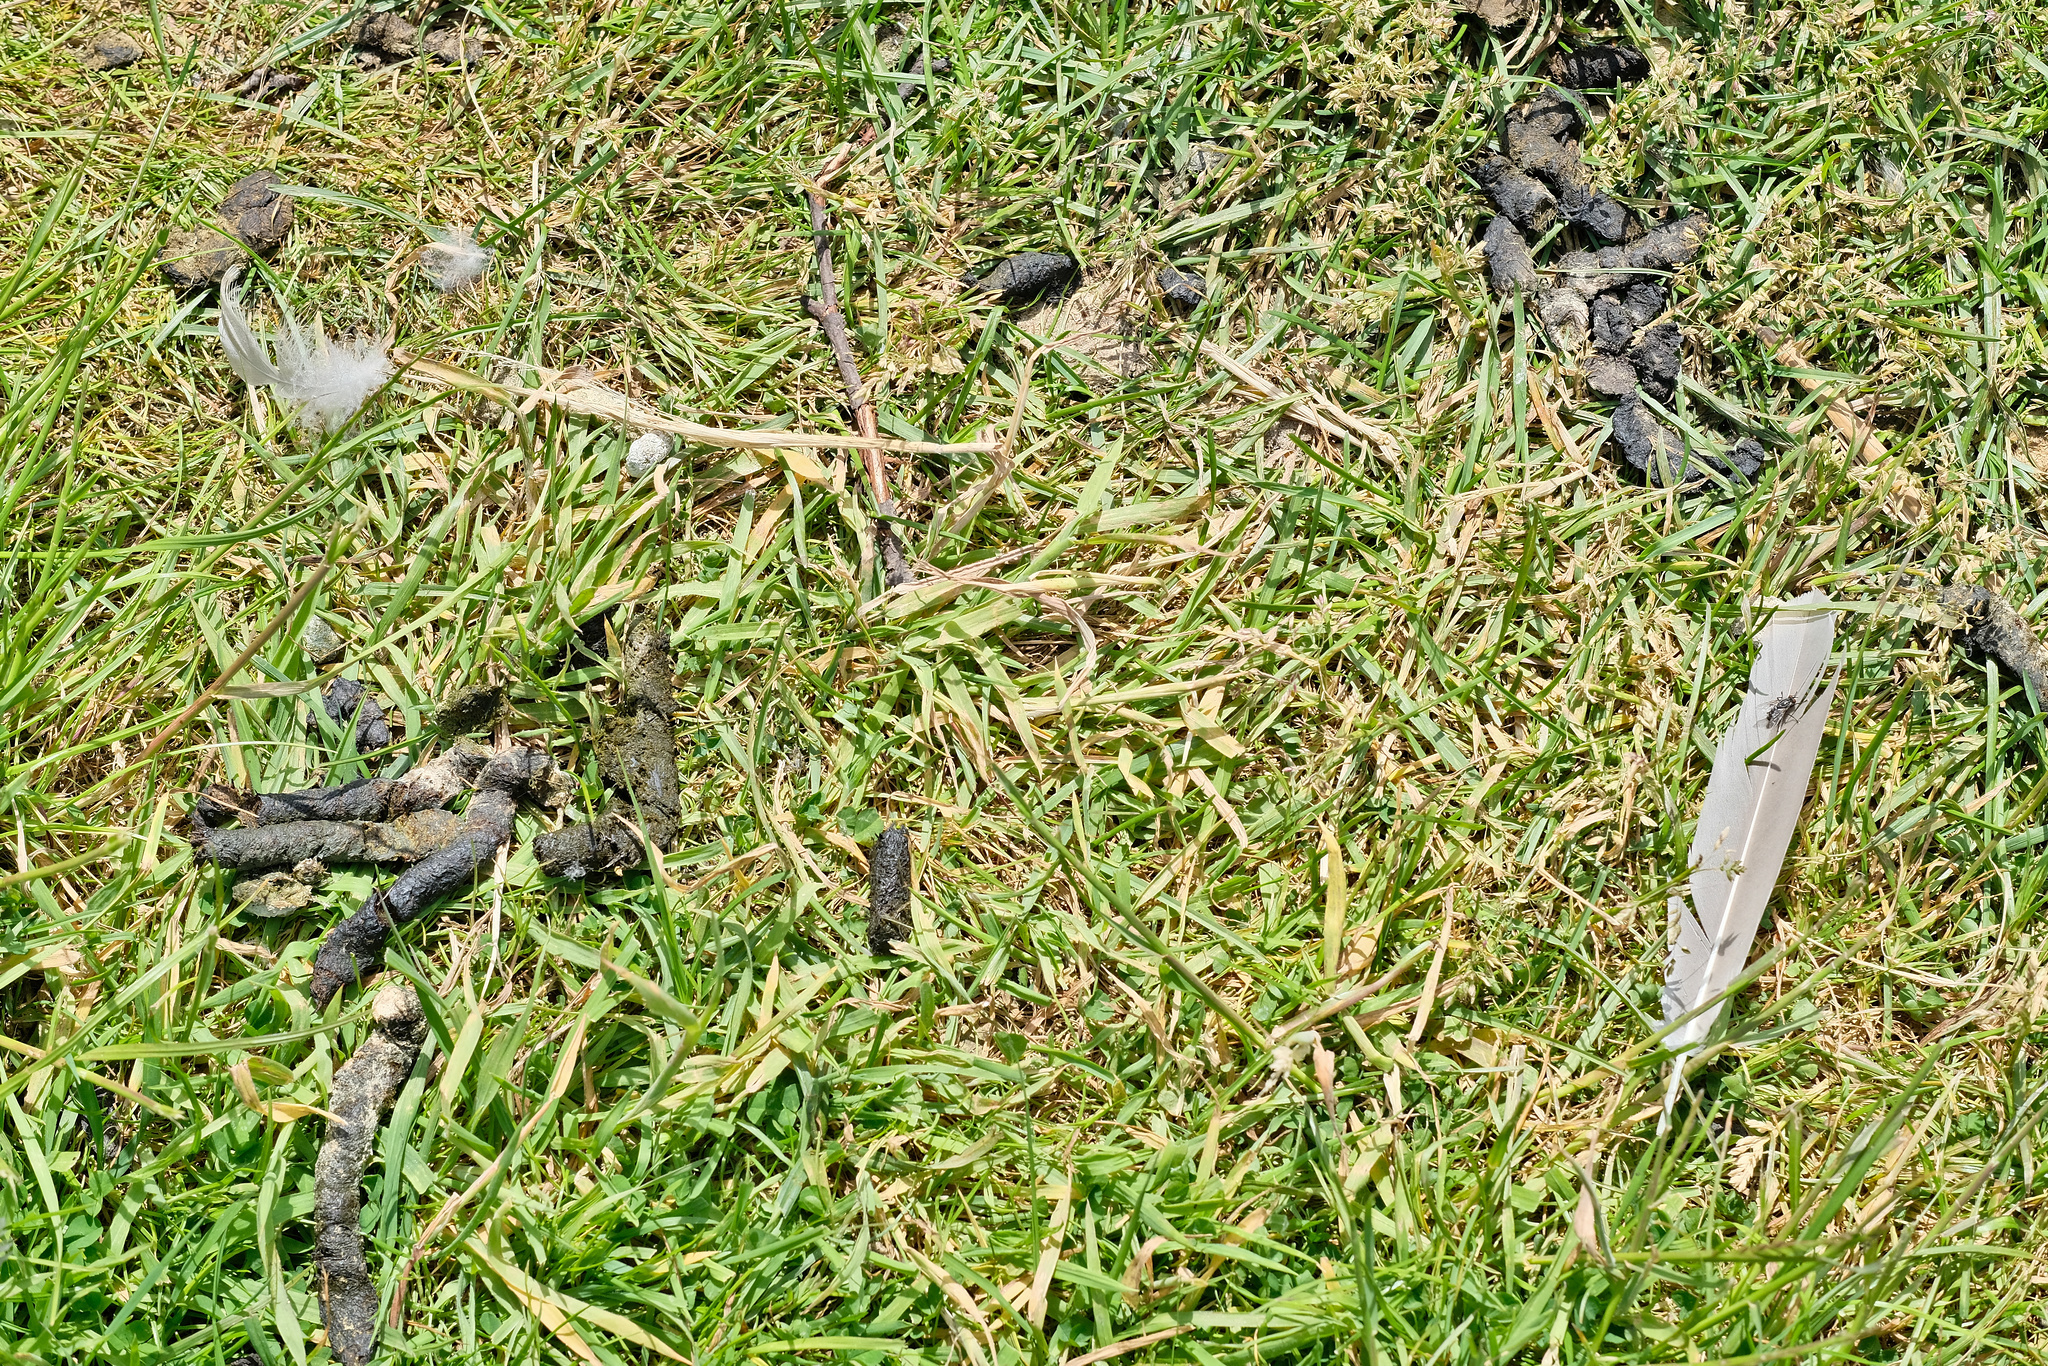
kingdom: Animalia
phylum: Chordata
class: Aves
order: Anseriformes
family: Anatidae
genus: Branta
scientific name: Branta canadensis
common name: Canada goose
